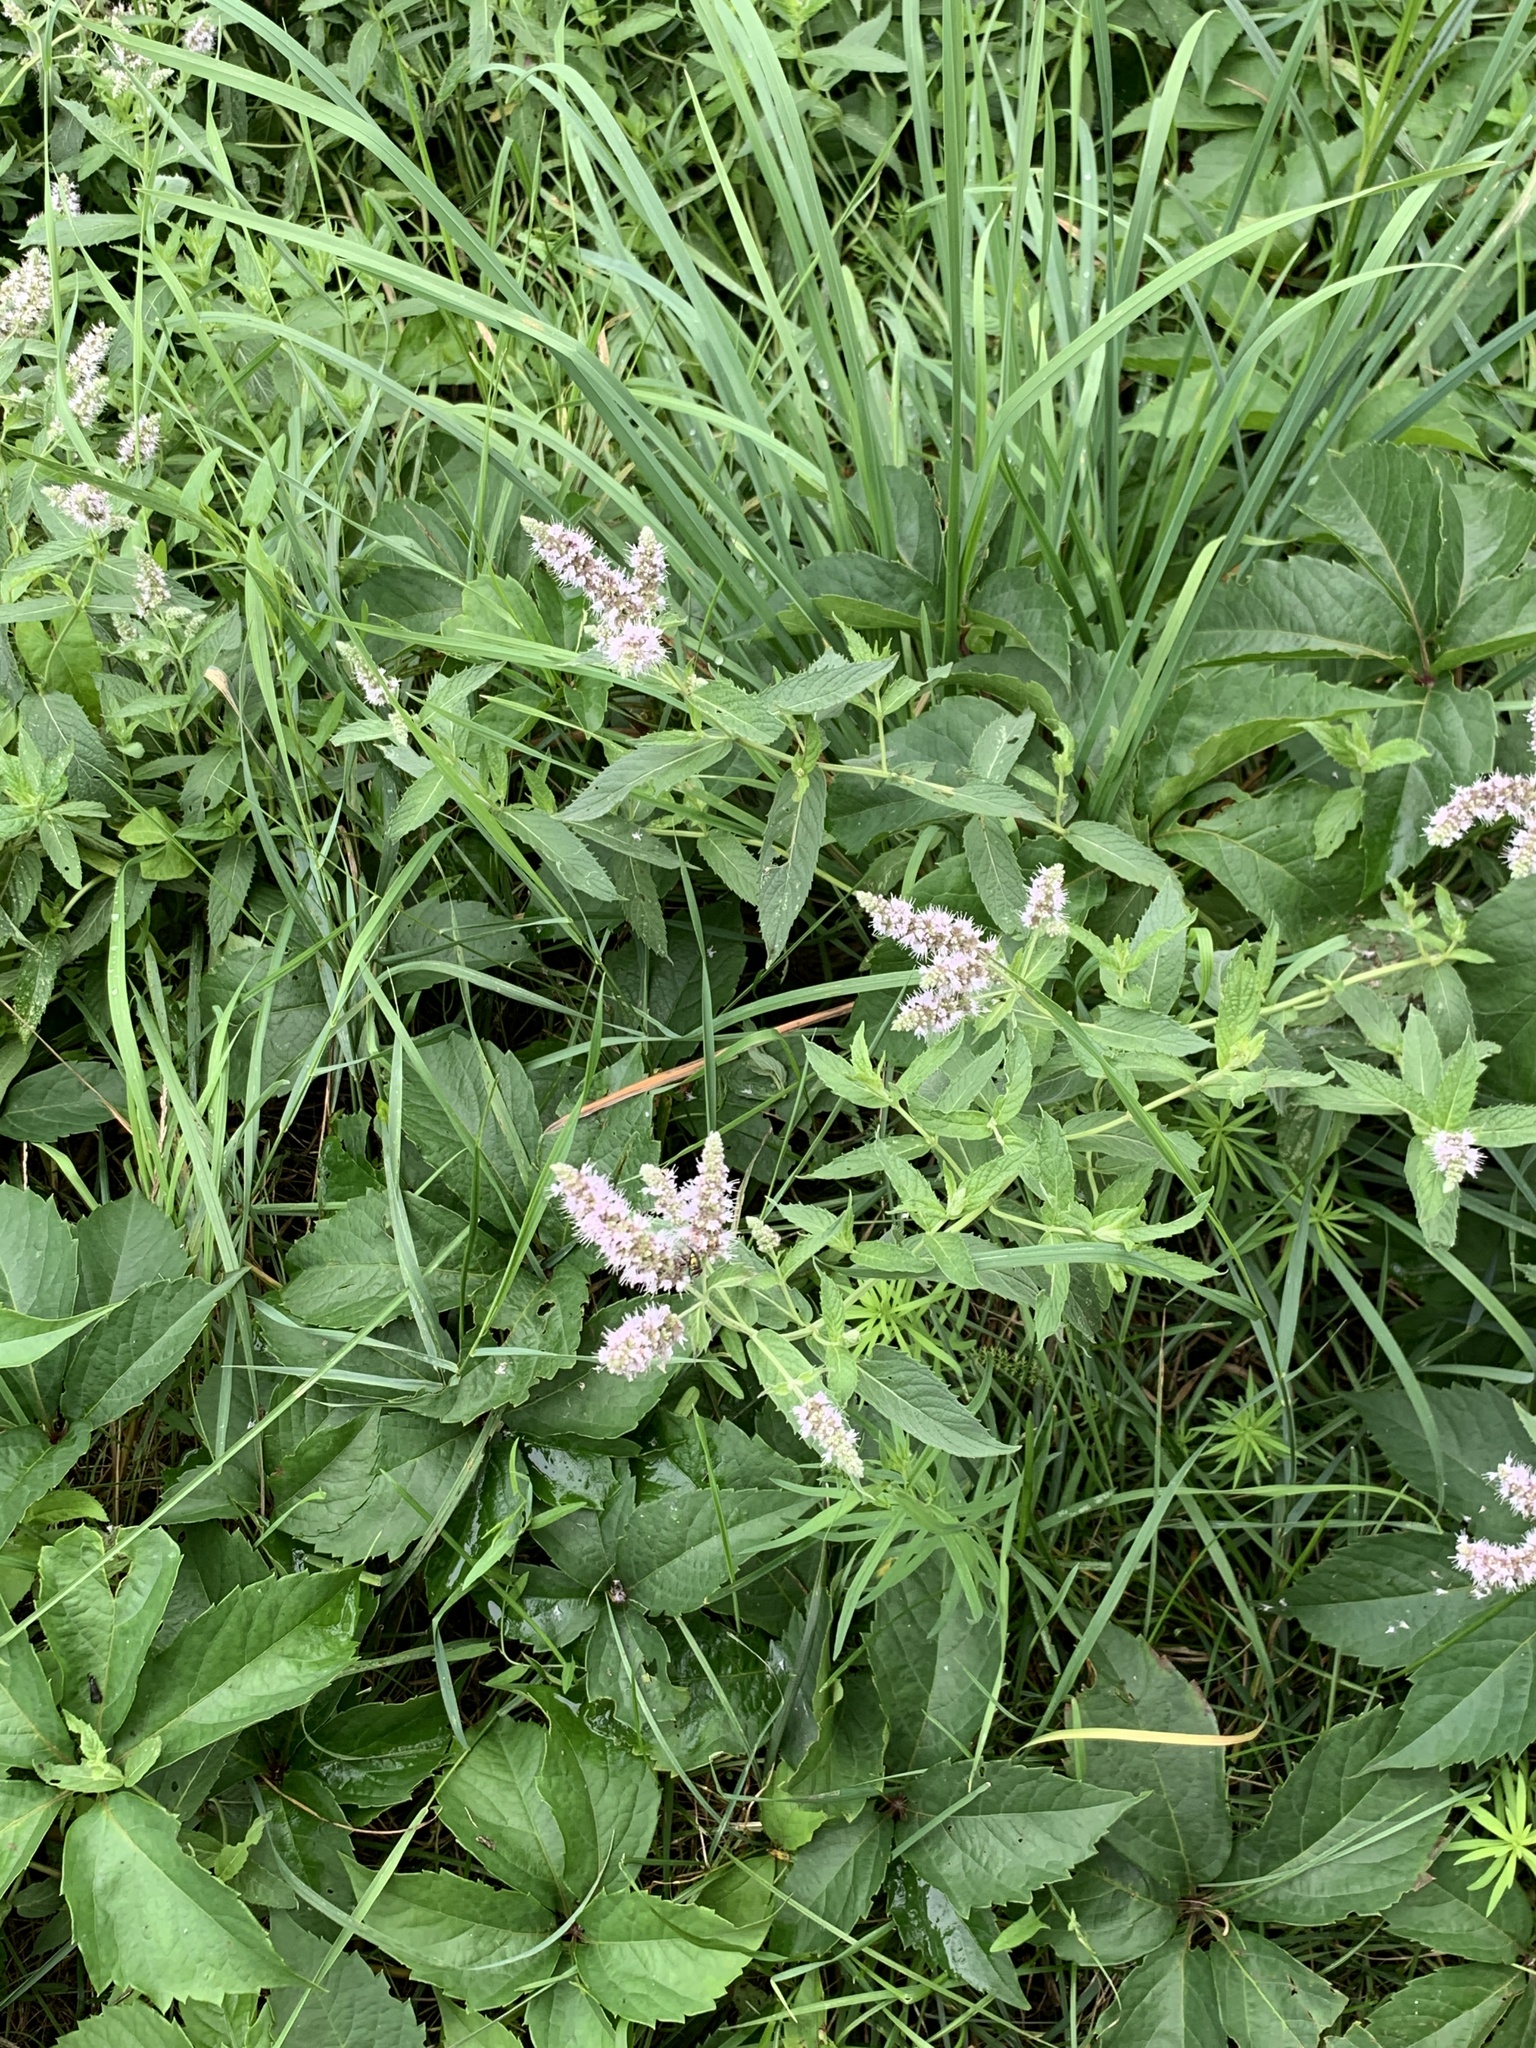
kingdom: Plantae
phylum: Tracheophyta
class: Magnoliopsida
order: Lamiales
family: Lamiaceae
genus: Mentha
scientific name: Mentha longifolia
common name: Horse mint
